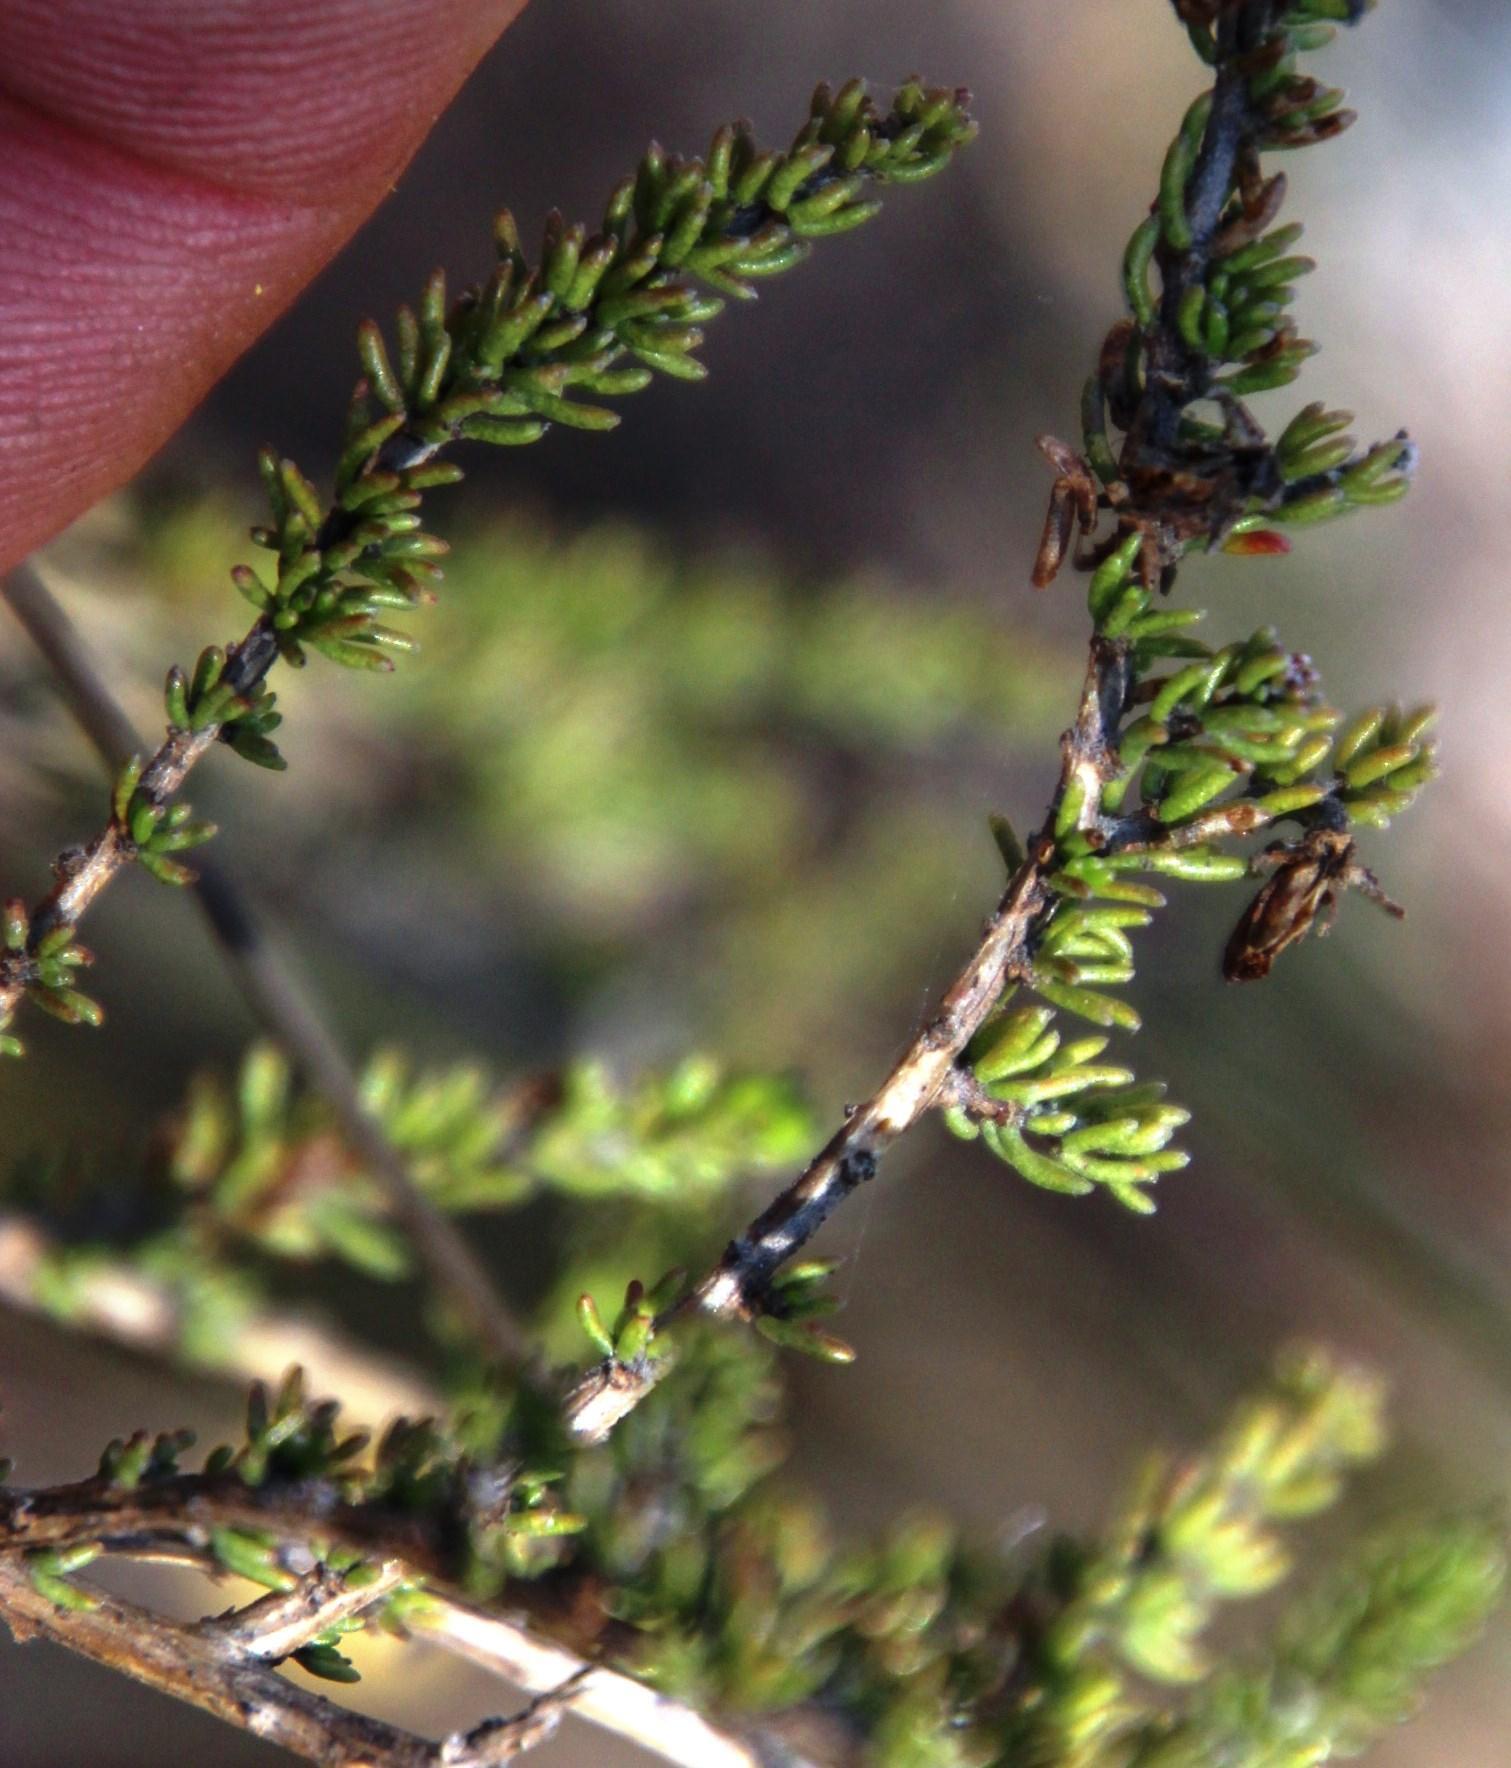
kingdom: Plantae
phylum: Tracheophyta
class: Magnoliopsida
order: Fabales
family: Fabaceae
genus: Aspalathus
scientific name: Aspalathus wurmbeana
